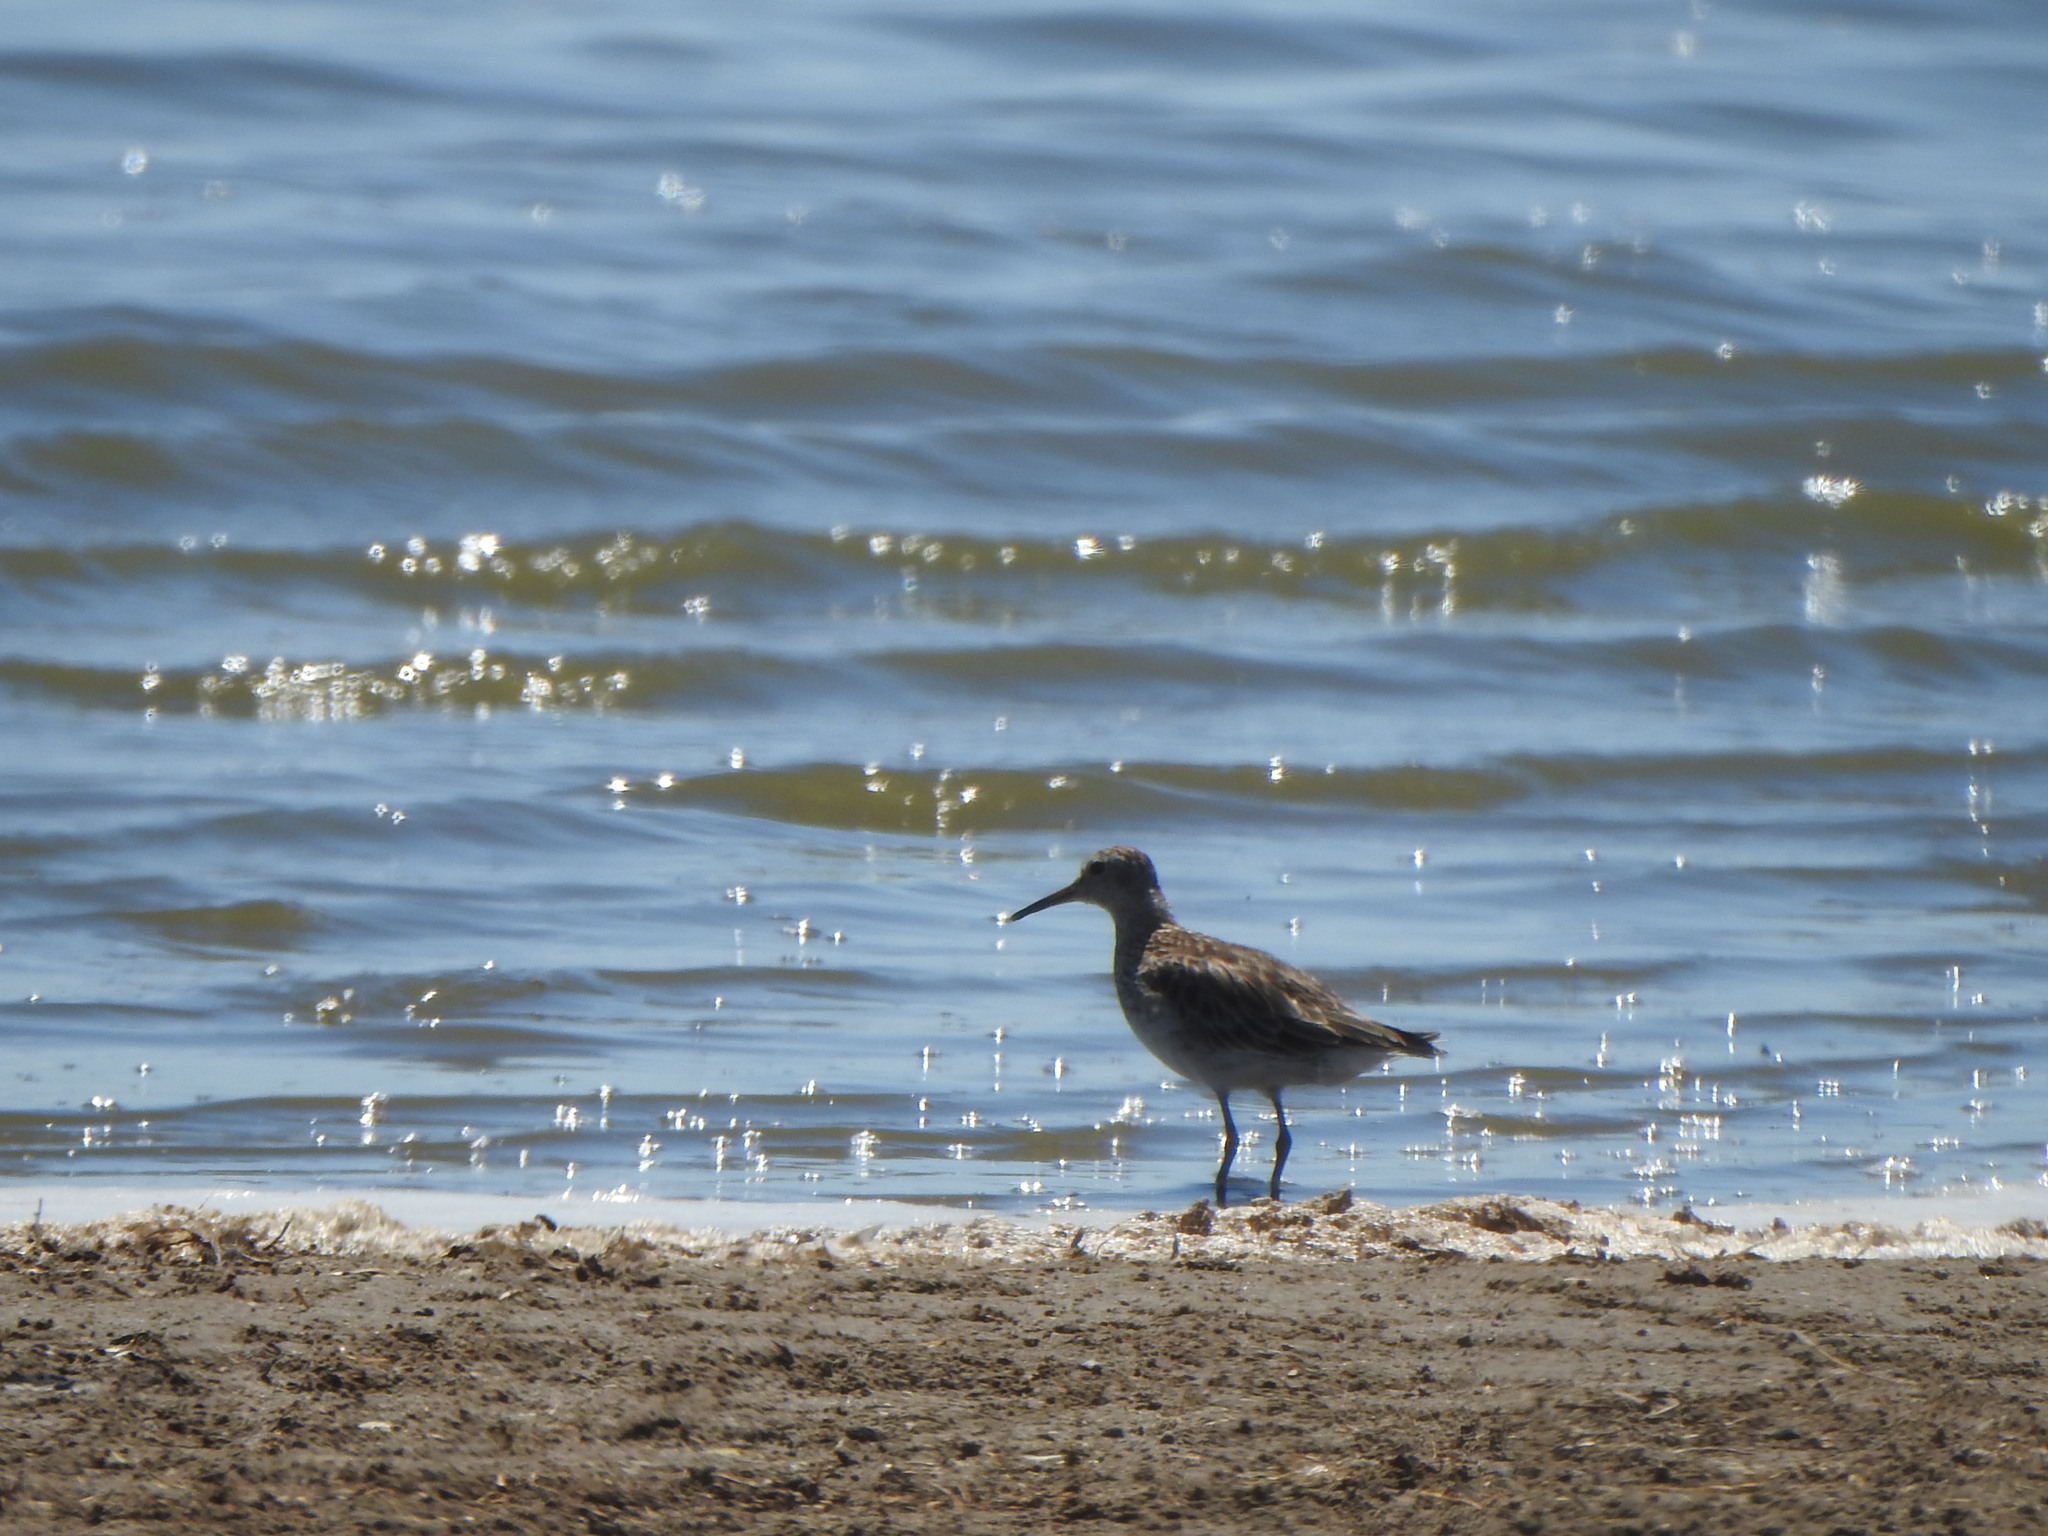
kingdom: Animalia
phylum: Chordata
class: Aves
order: Charadriiformes
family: Scolopacidae
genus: Calidris
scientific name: Calidris melanotos
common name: Pectoral sandpiper
